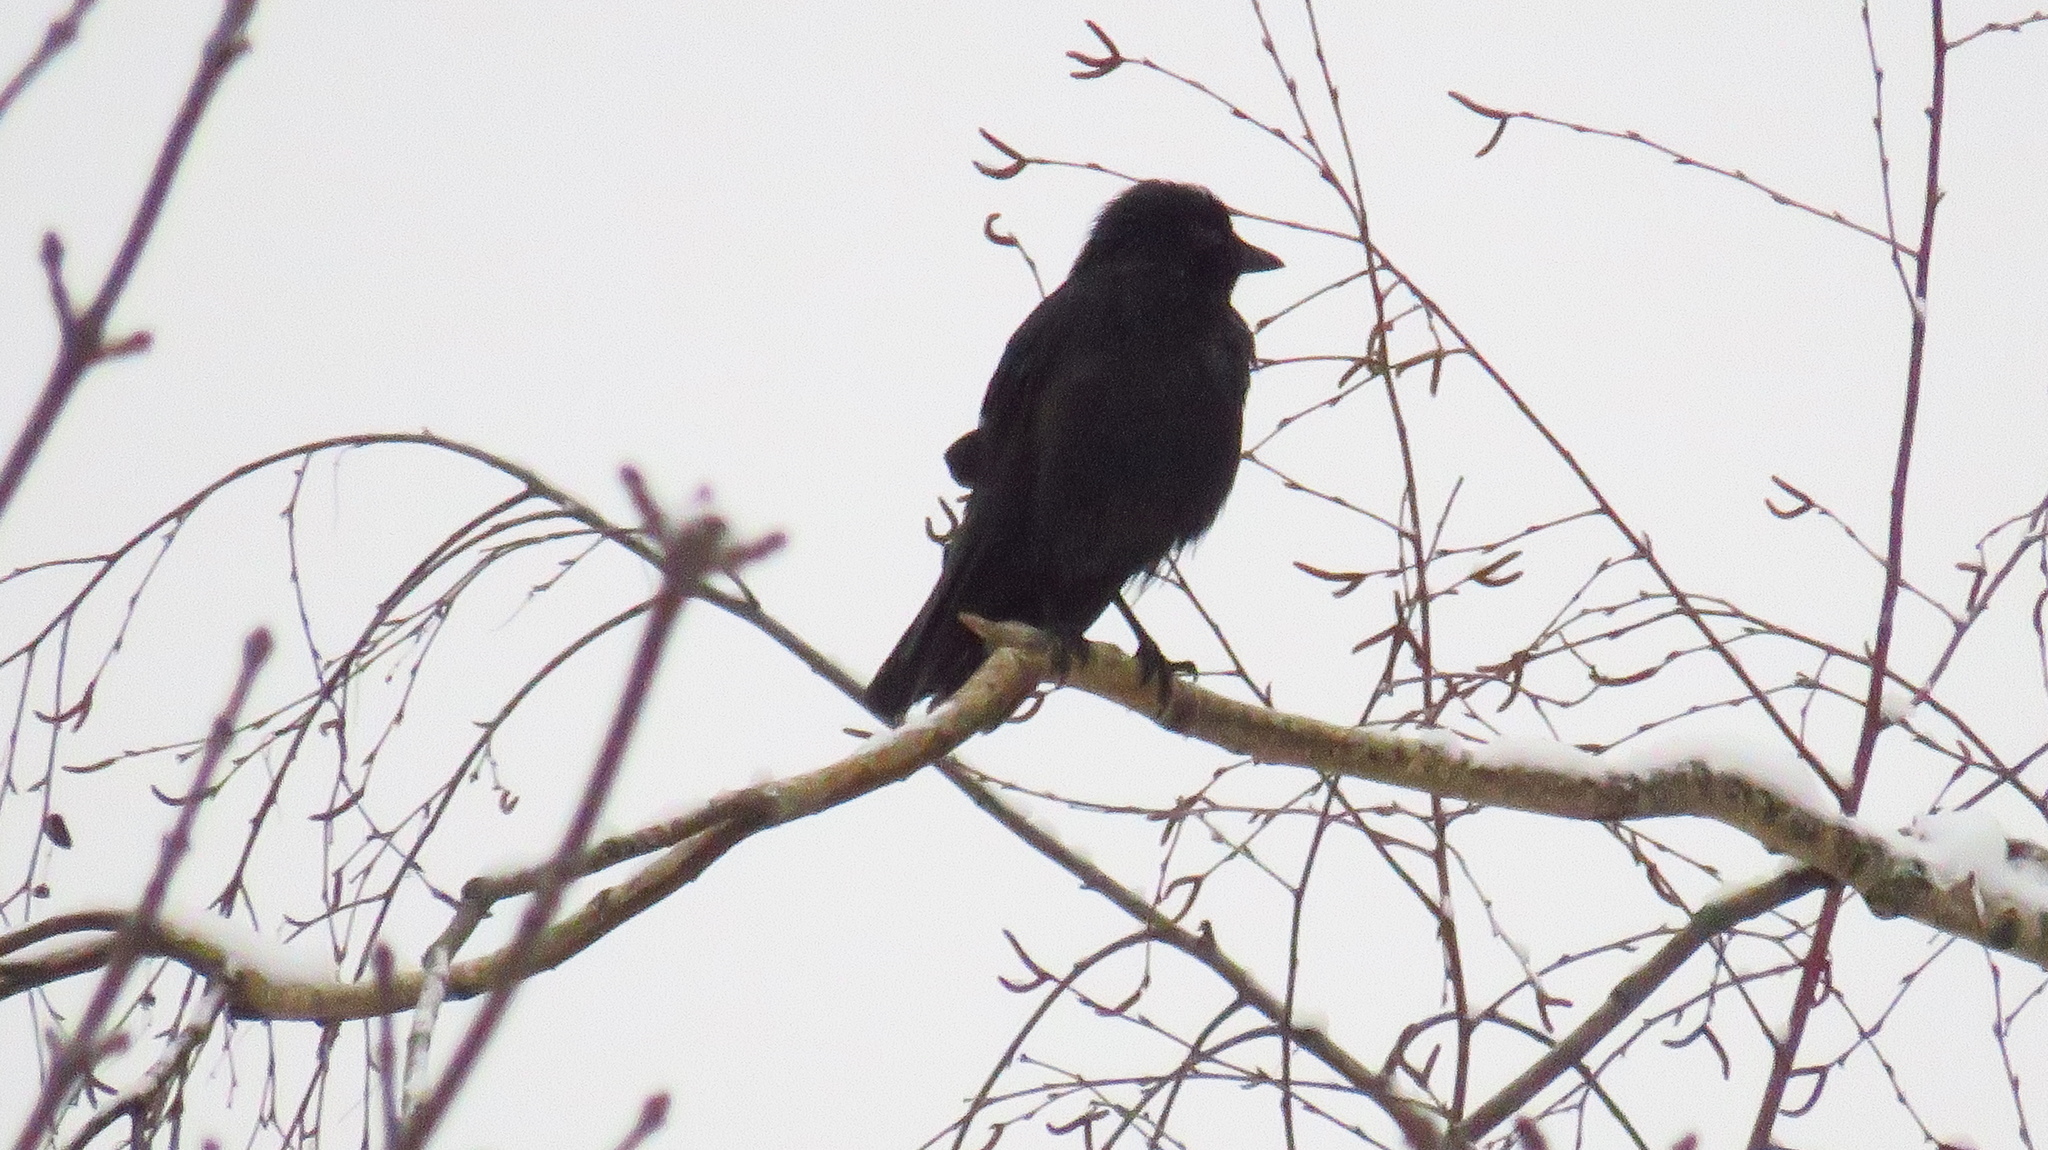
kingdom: Animalia
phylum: Chordata
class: Aves
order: Passeriformes
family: Corvidae
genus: Coloeus
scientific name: Coloeus monedula
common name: Western jackdaw
